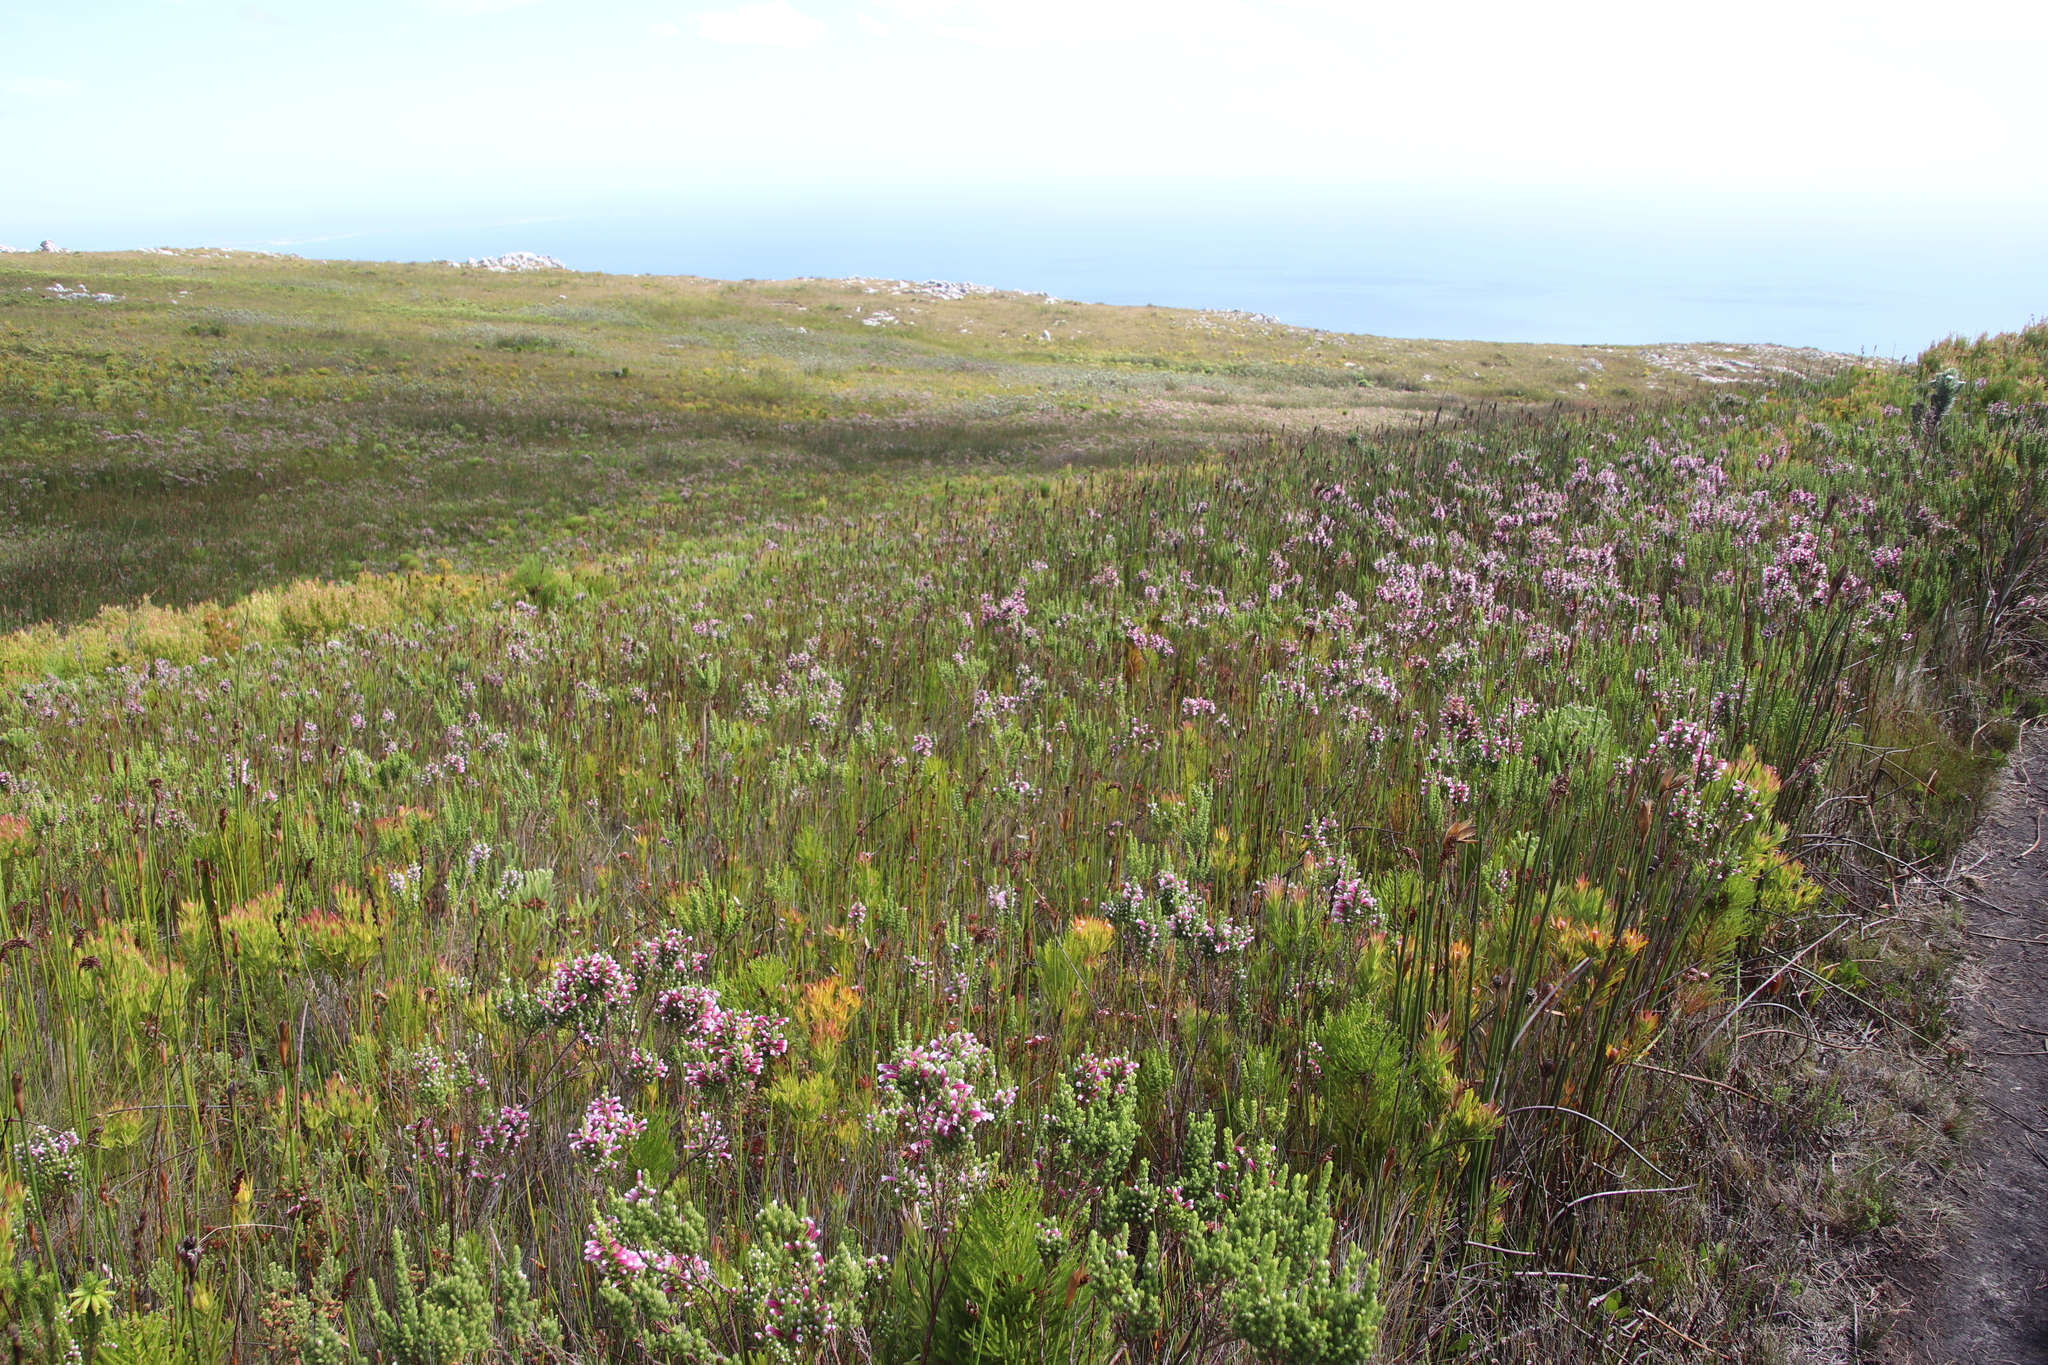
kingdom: Plantae
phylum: Tracheophyta
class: Magnoliopsida
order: Ericales
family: Ericaceae
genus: Erica
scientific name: Erica macowanii
